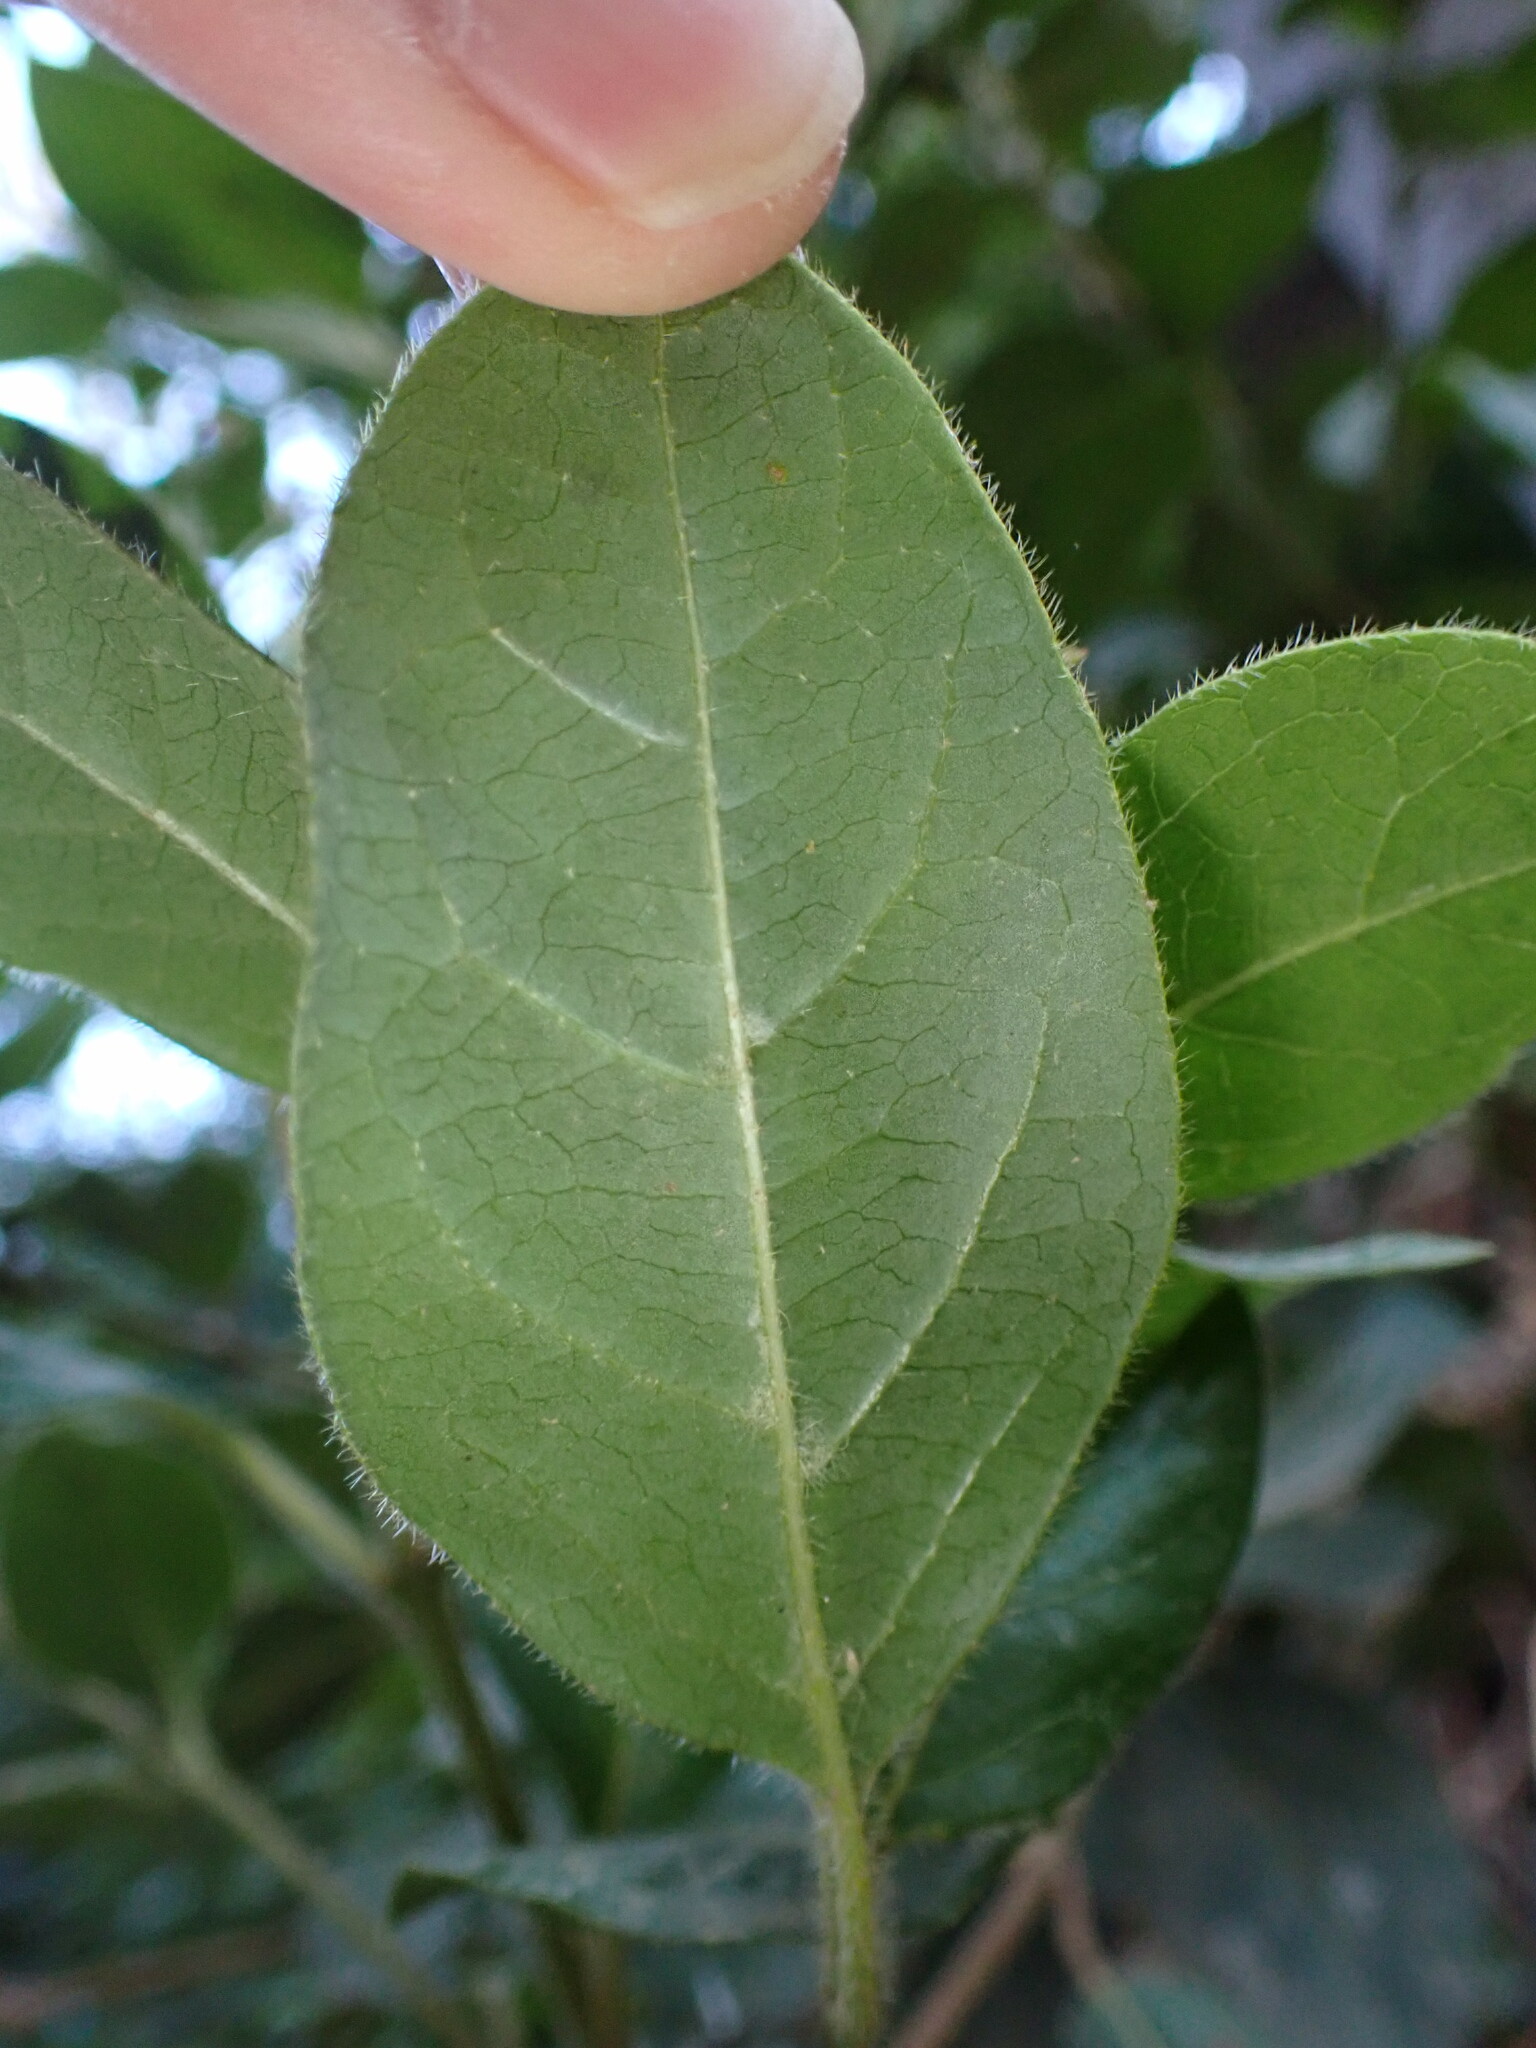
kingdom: Plantae
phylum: Tracheophyta
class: Magnoliopsida
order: Dipsacales
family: Viburnaceae
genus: Viburnum
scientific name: Viburnum tinus
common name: Laurustinus
